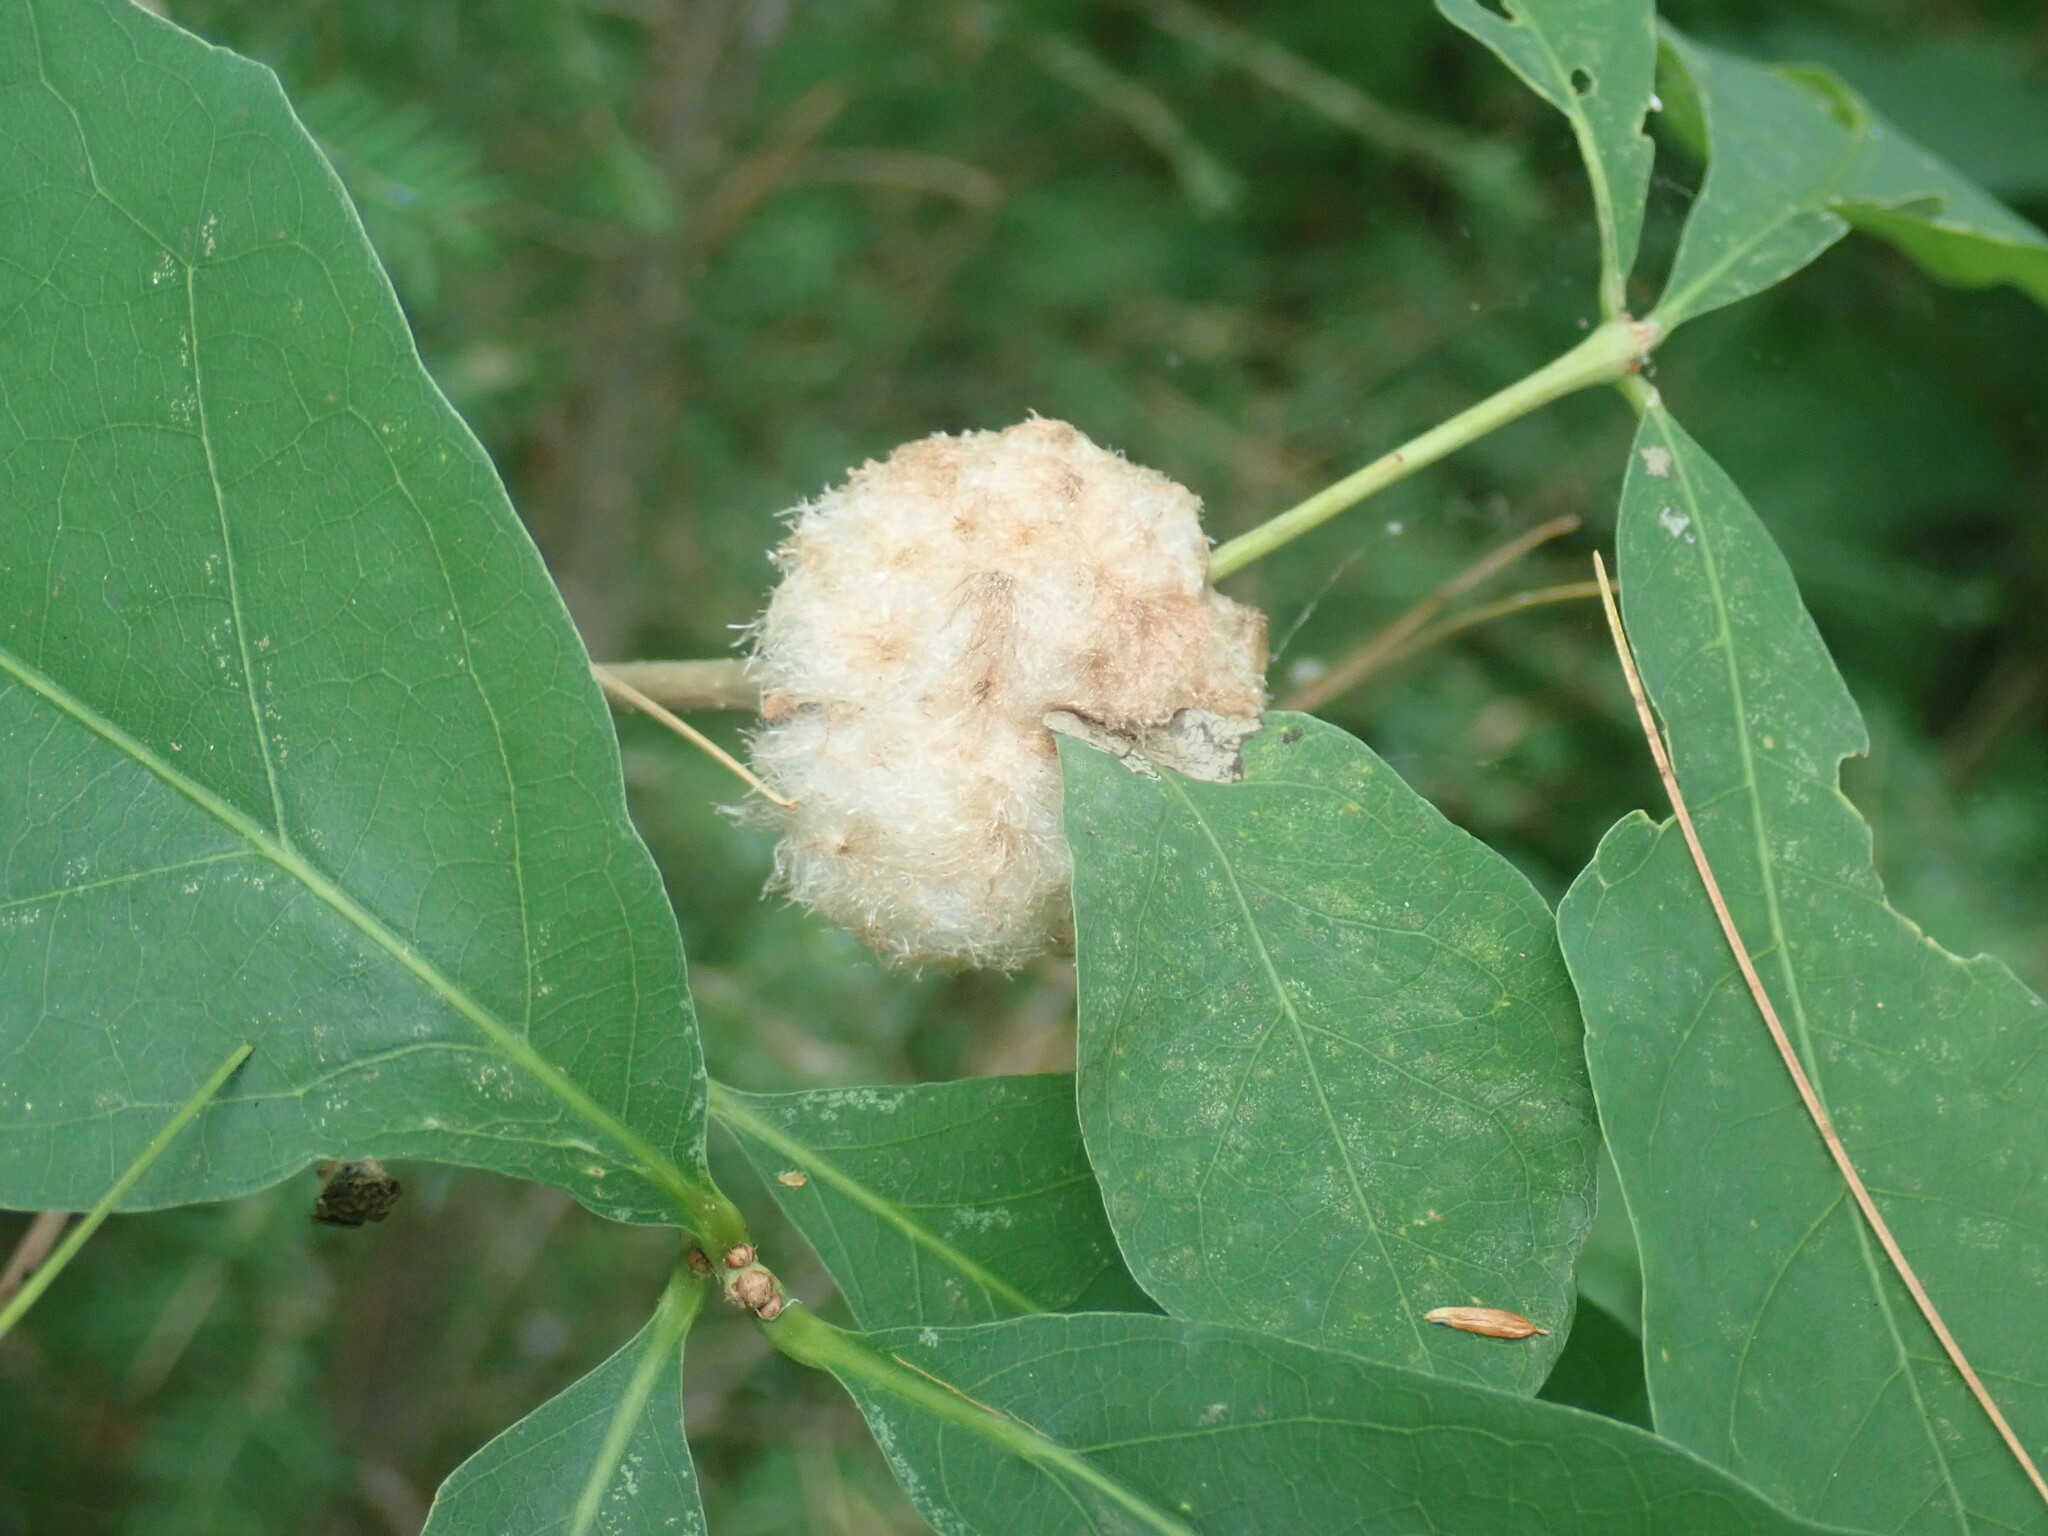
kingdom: Animalia
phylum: Arthropoda
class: Insecta
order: Hymenoptera
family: Cynipidae
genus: Callirhytis
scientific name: Callirhytis
